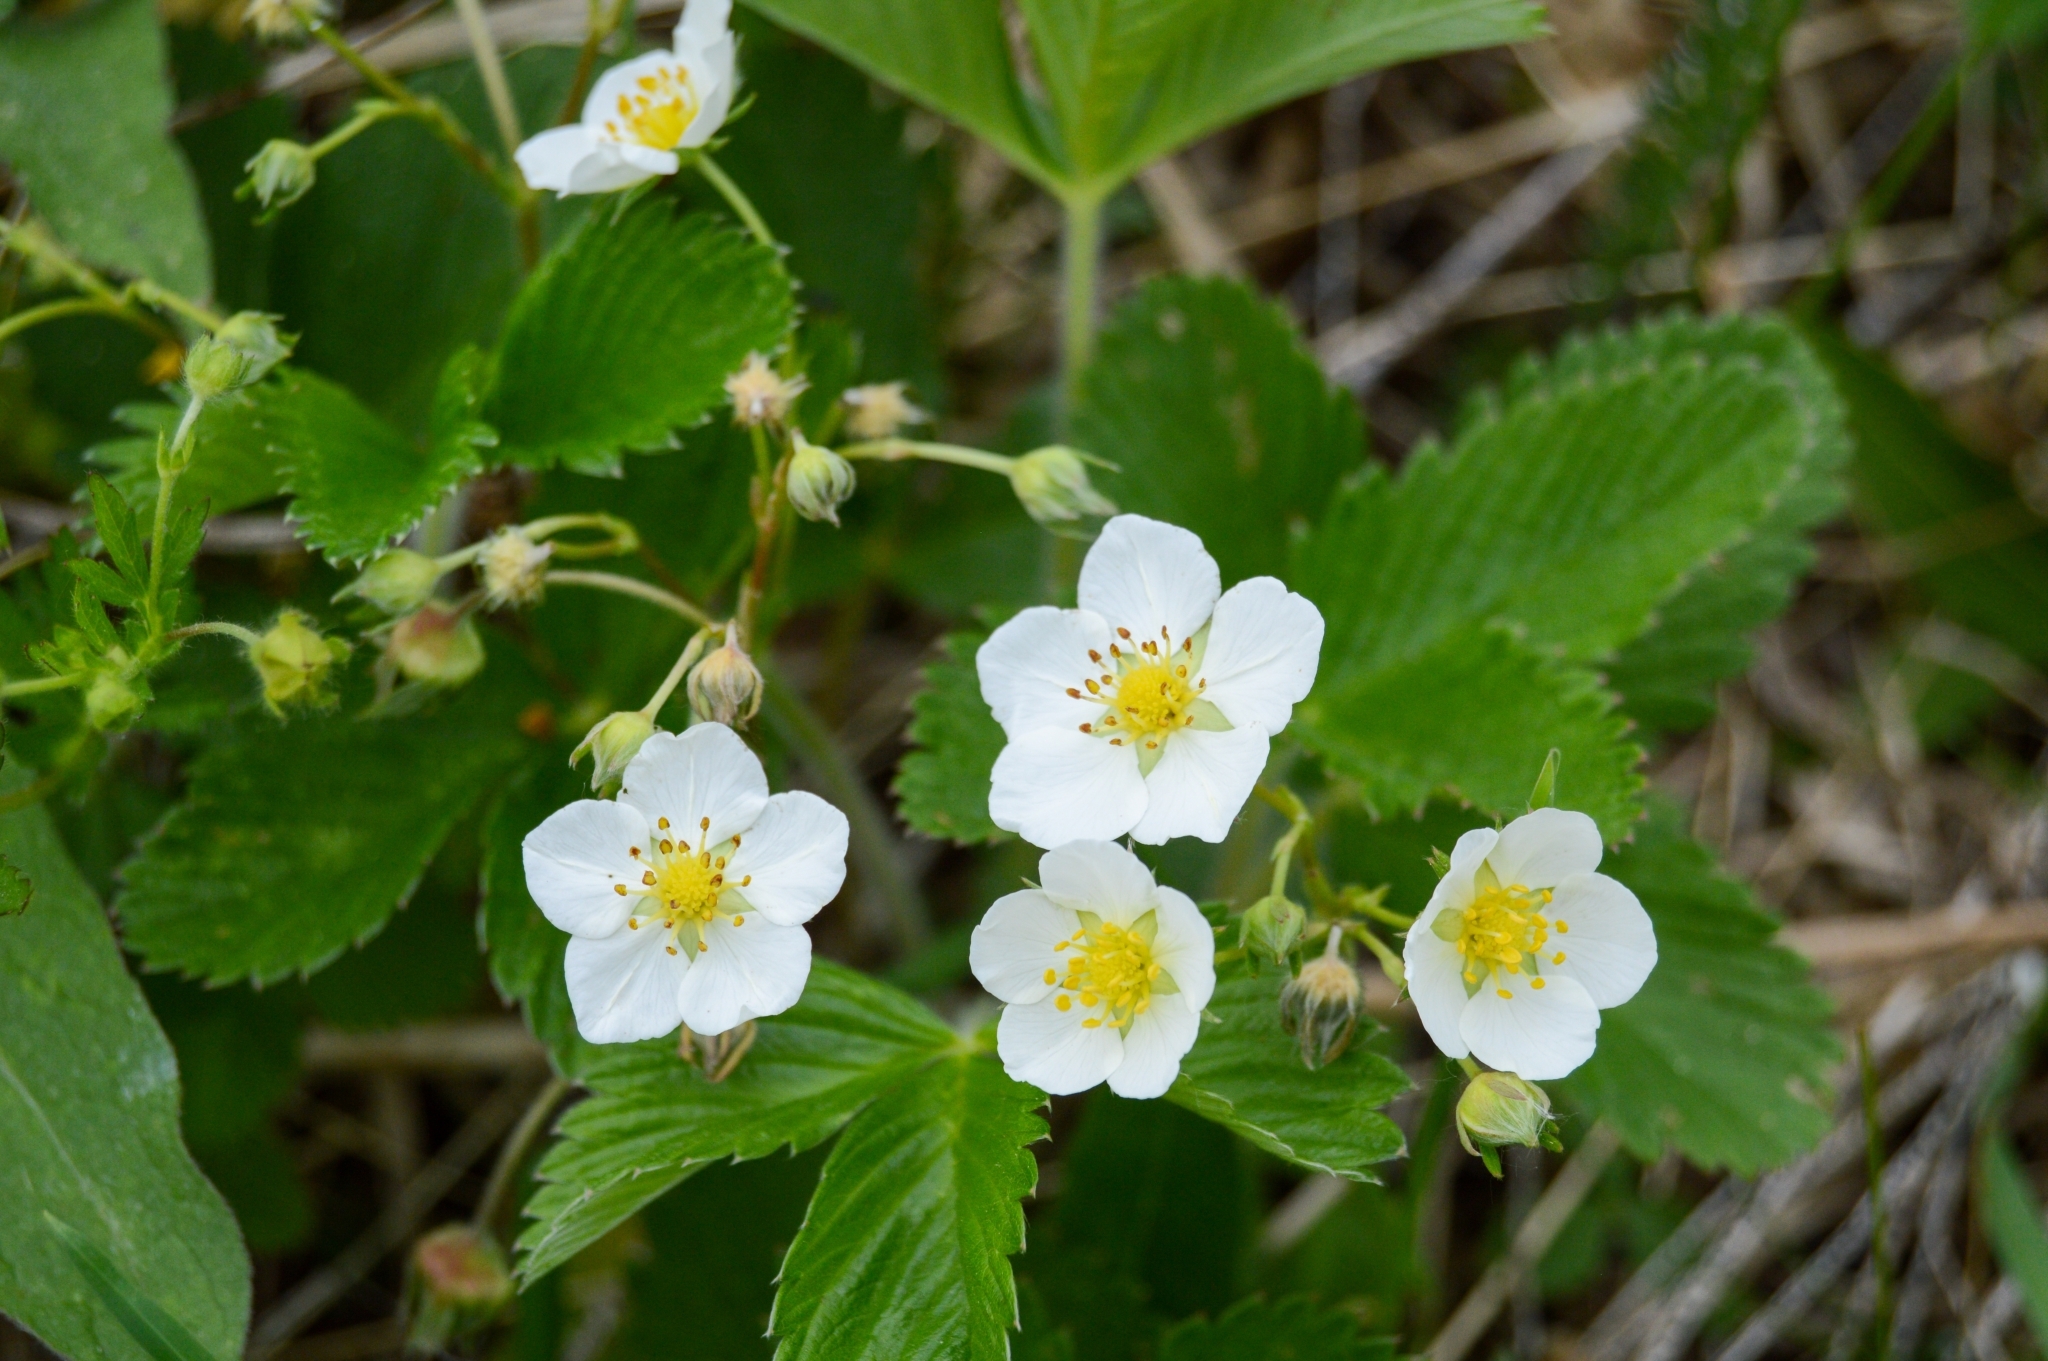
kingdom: Plantae
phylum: Tracheophyta
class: Magnoliopsida
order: Rosales
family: Rosaceae
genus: Fragaria
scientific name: Fragaria viridis
